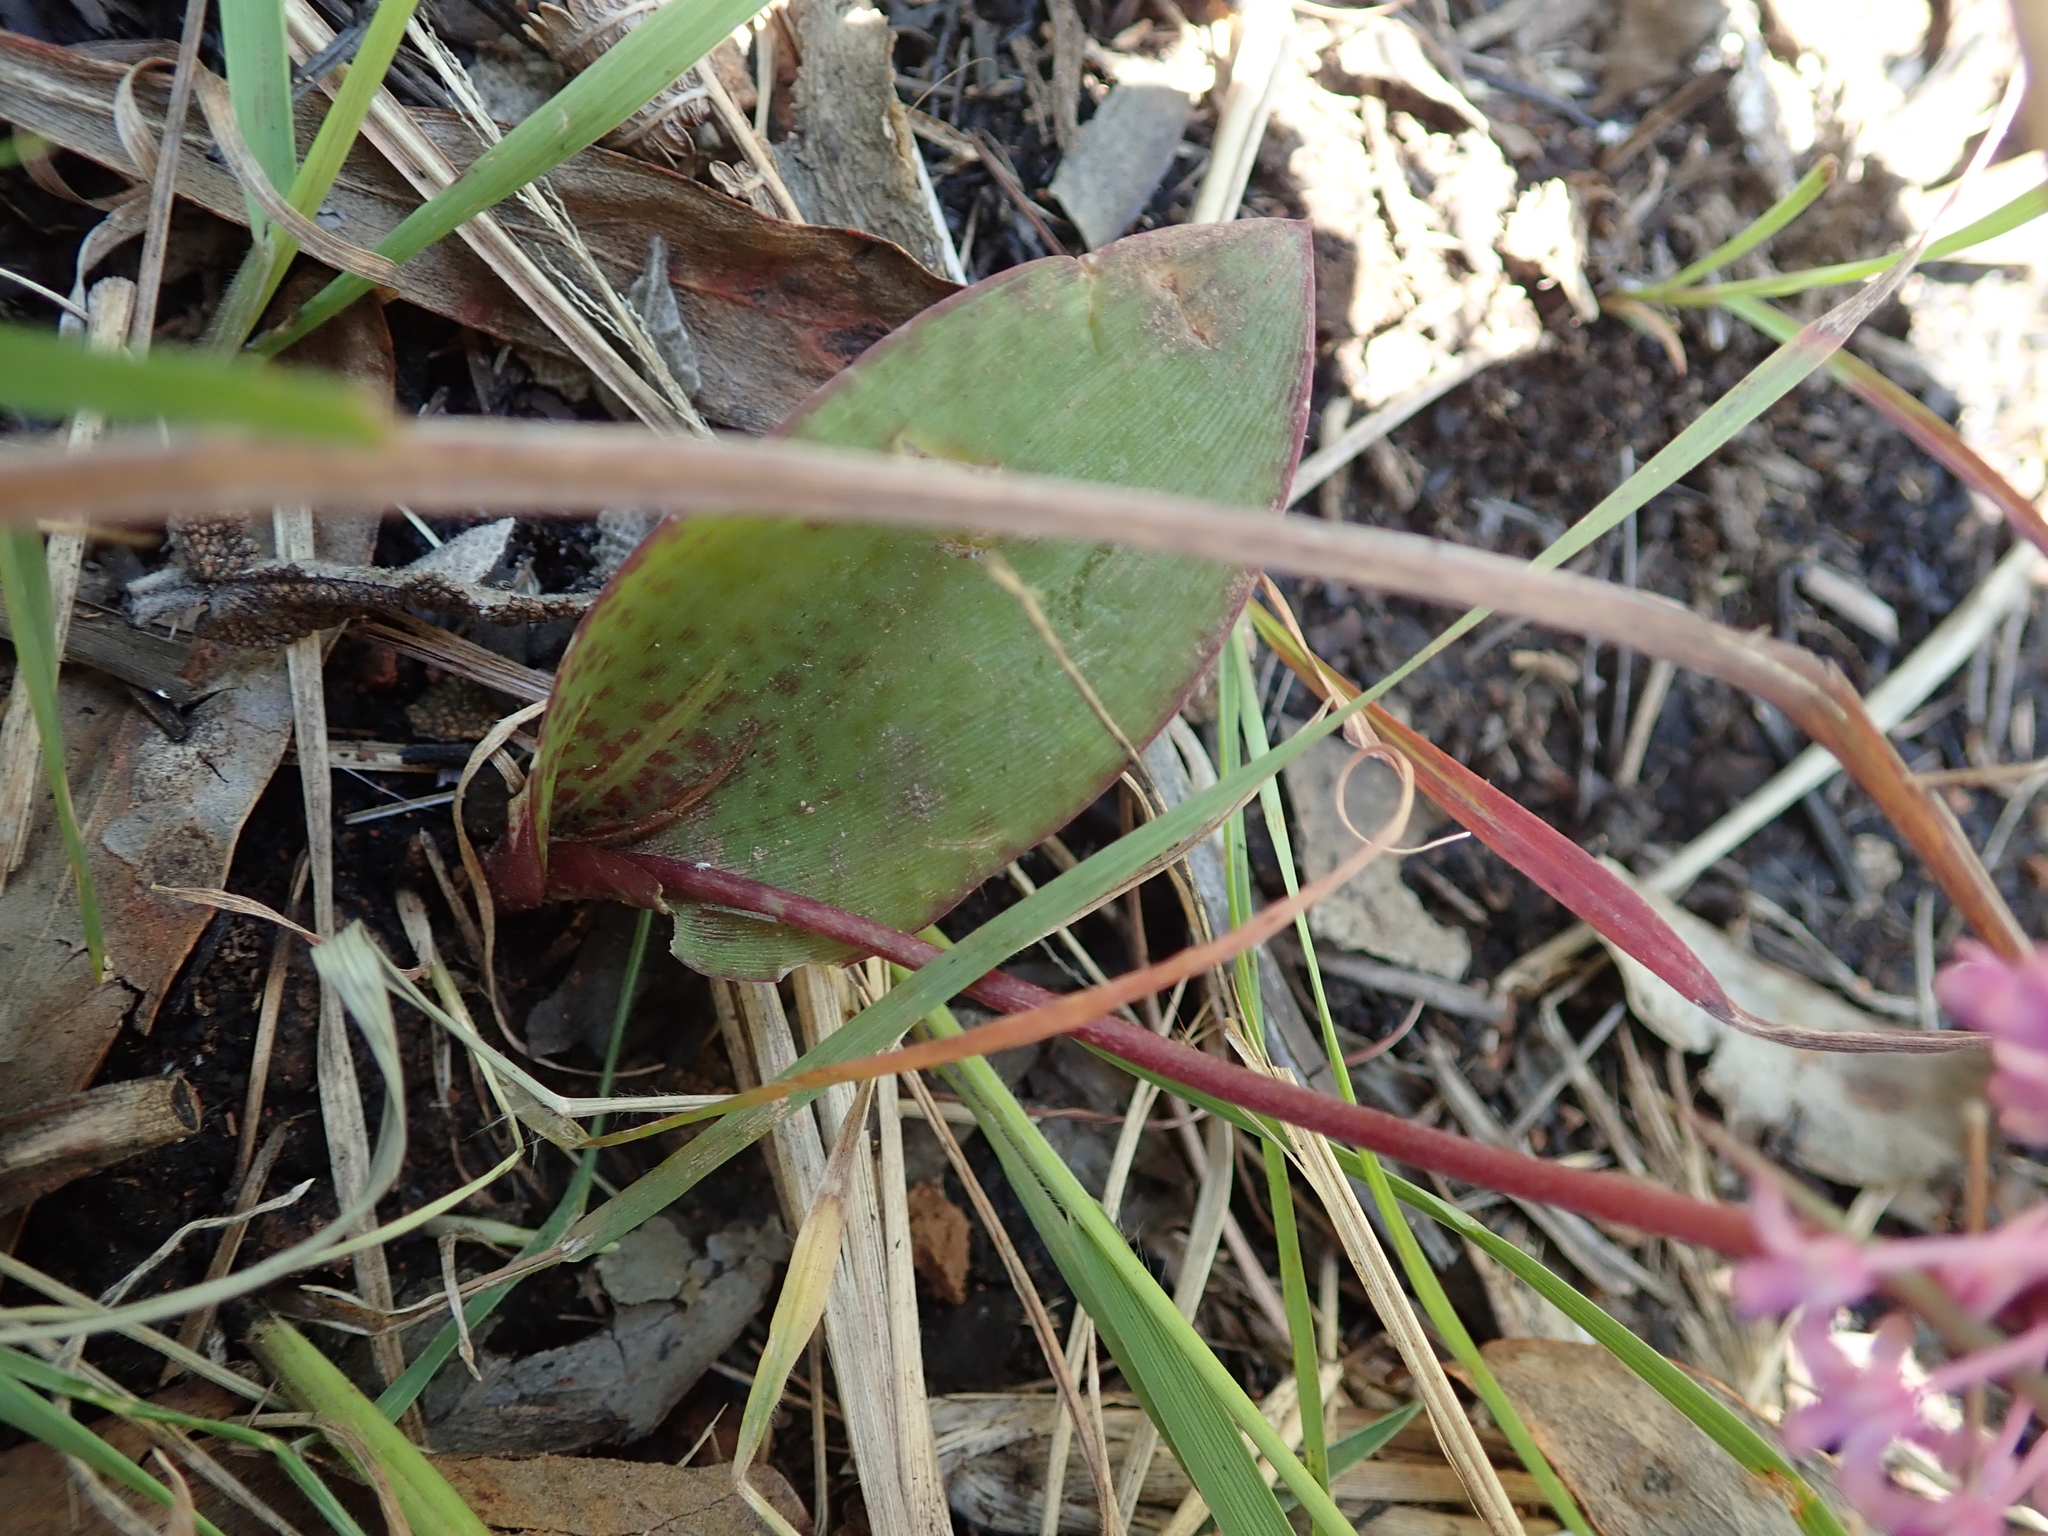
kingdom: Plantae
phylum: Tracheophyta
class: Liliopsida
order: Asparagales
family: Asparagaceae
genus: Ledebouria
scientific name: Ledebouria sandersonii
